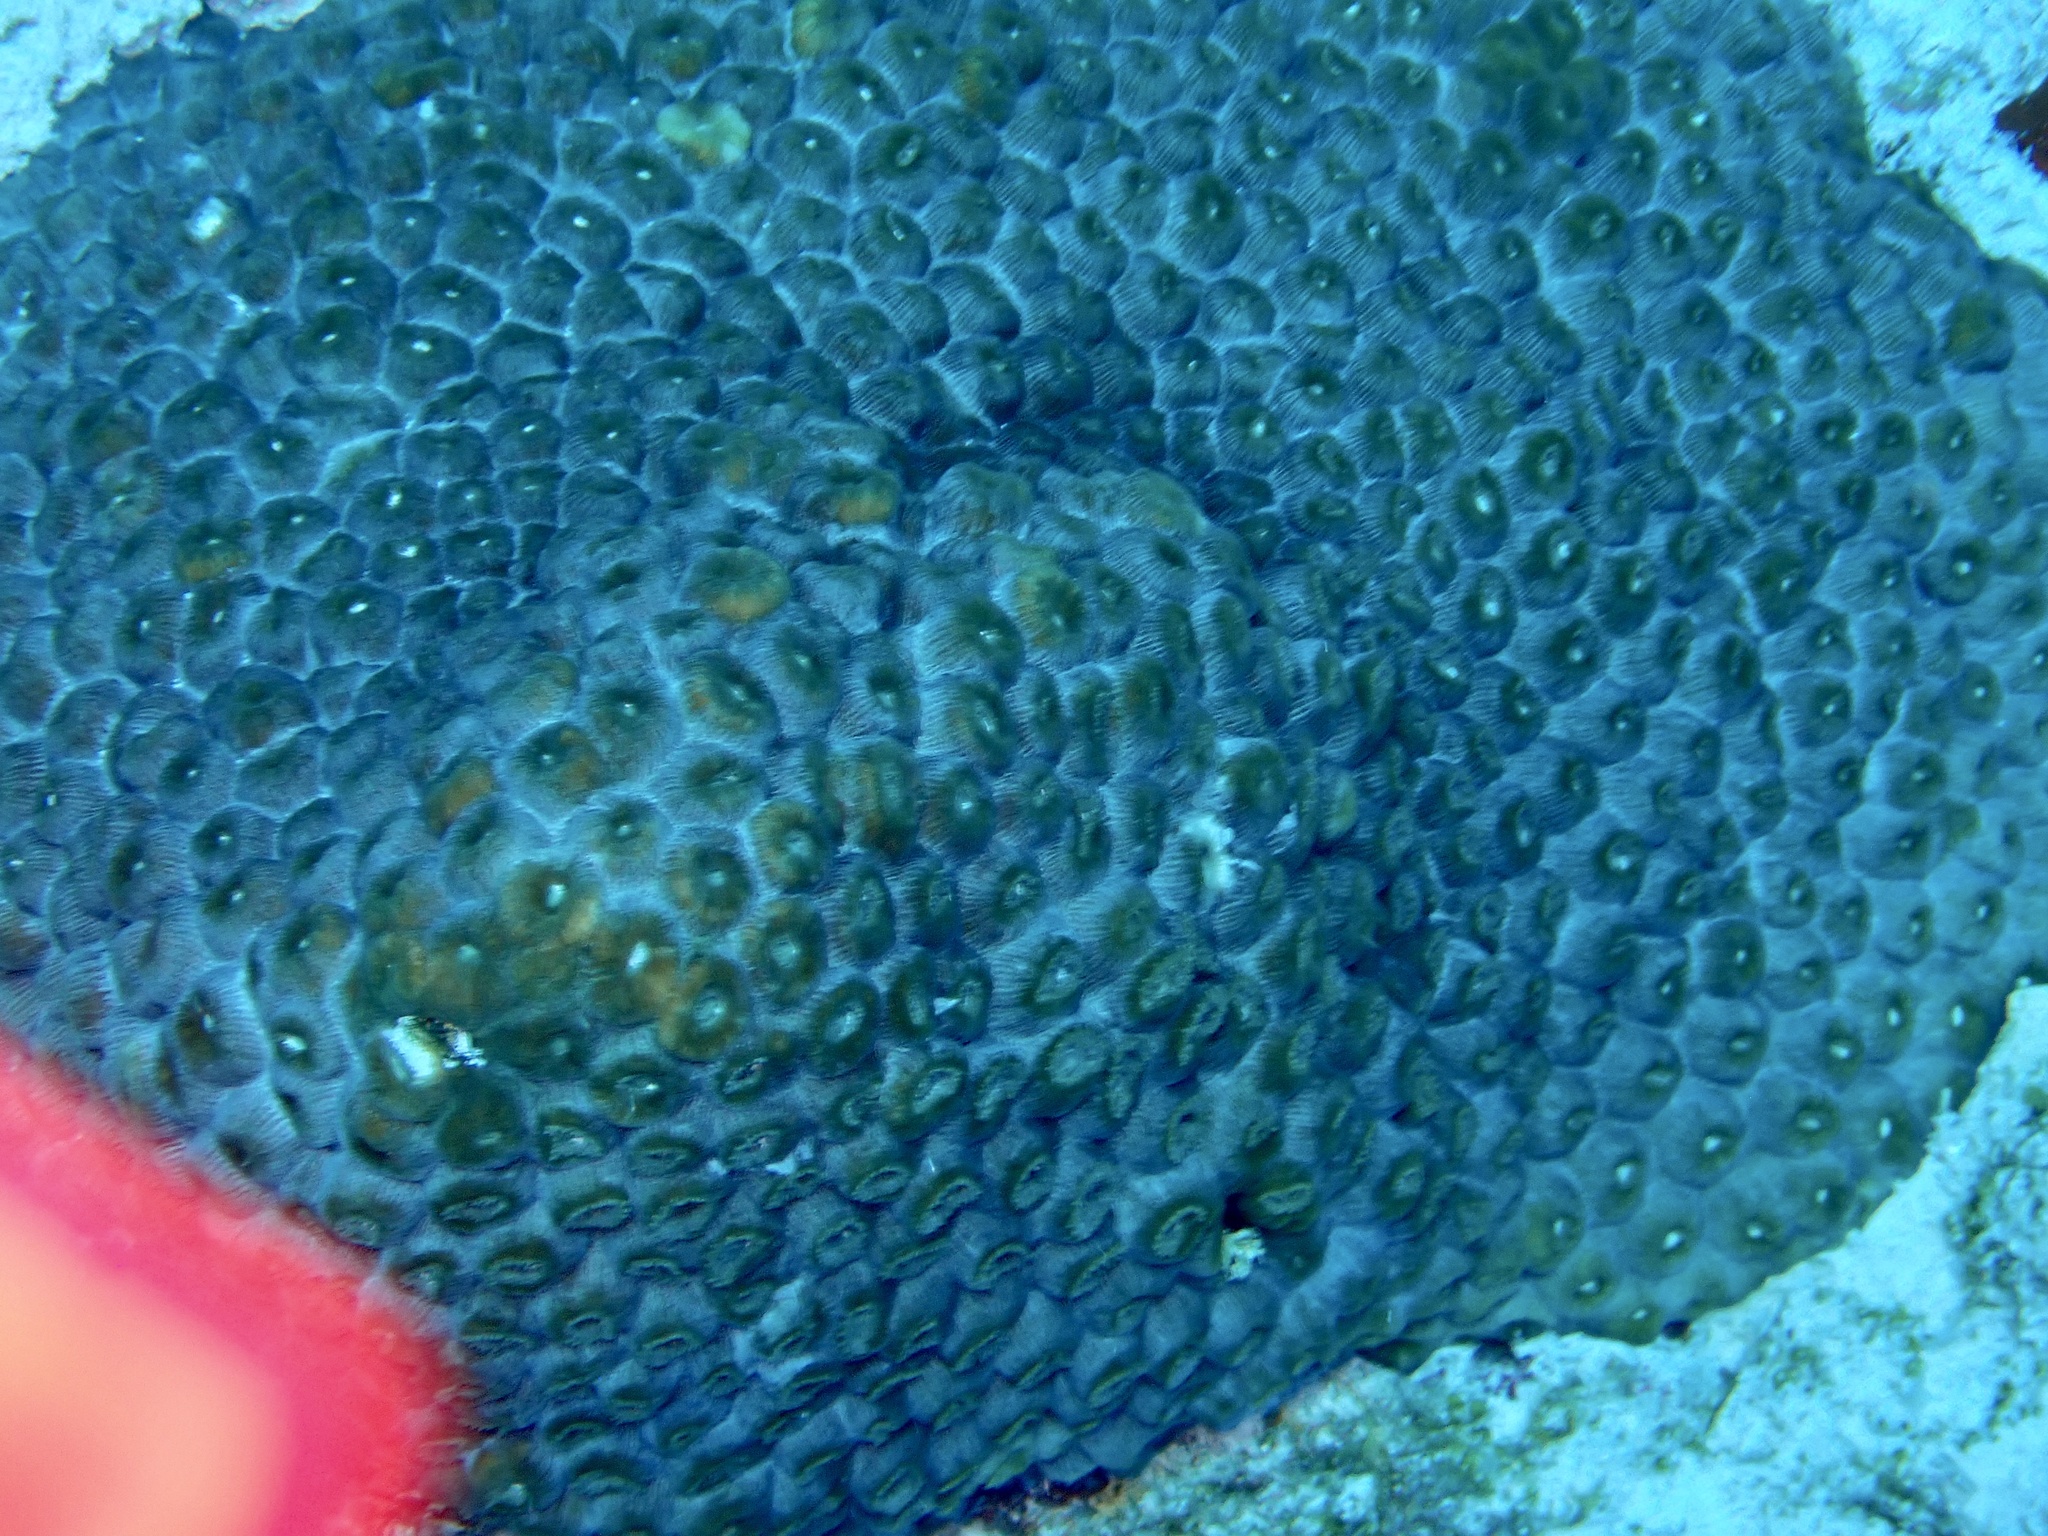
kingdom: Animalia
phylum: Cnidaria
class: Anthozoa
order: Scleractinia
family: Montastraeidae
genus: Montastraea
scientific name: Montastraea cavernosa
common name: Great star coral
